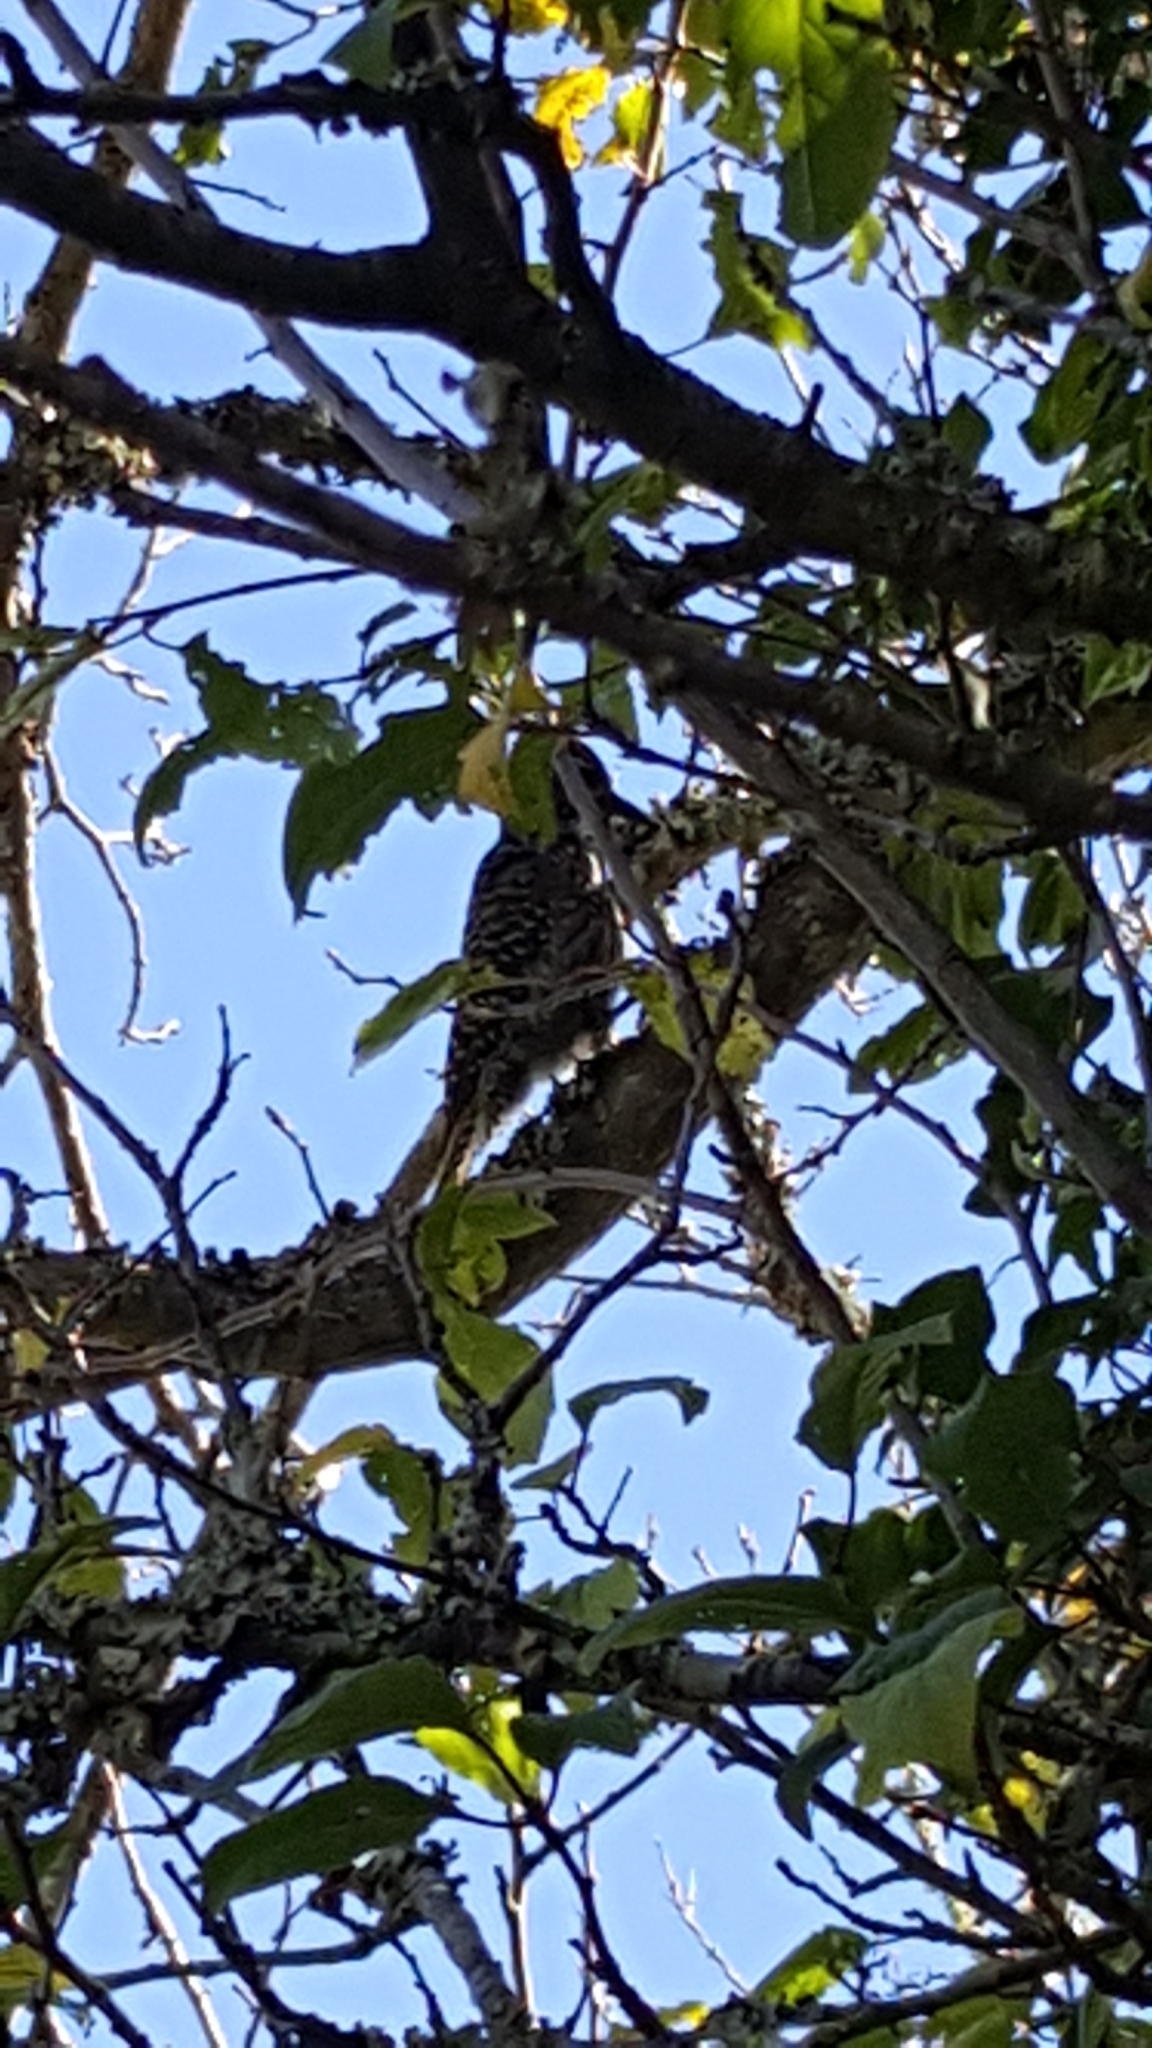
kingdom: Animalia
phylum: Chordata
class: Aves
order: Piciformes
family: Picidae
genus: Dendropicos
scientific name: Dendropicos fuscescens
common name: Cardinal woodpecker
